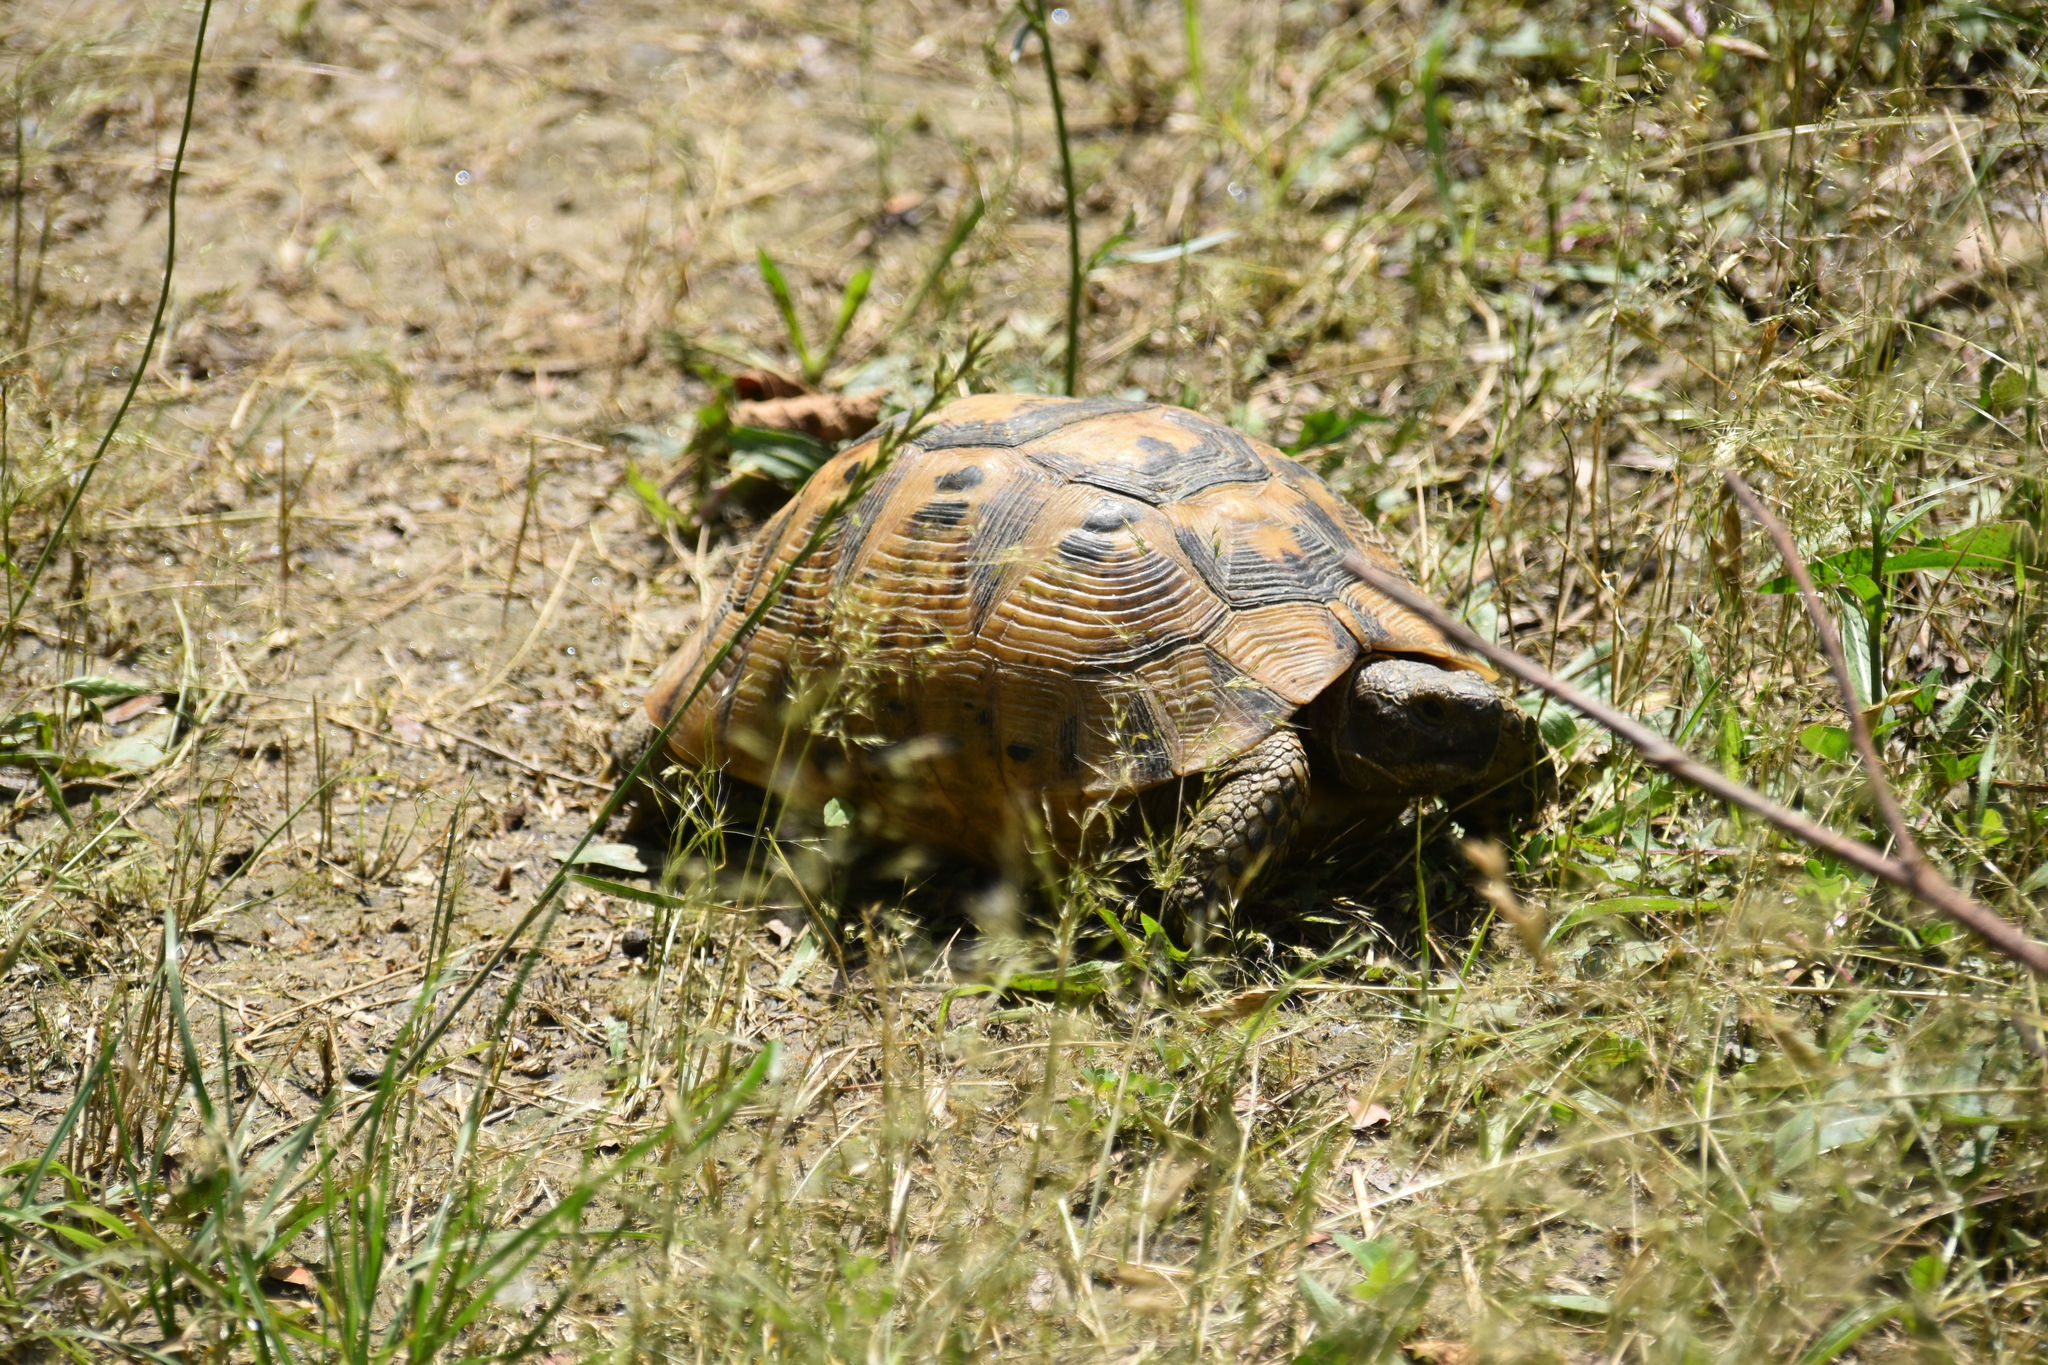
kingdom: Animalia
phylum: Chordata
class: Testudines
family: Testudinidae
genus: Testudo
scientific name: Testudo graeca
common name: Common tortoise
